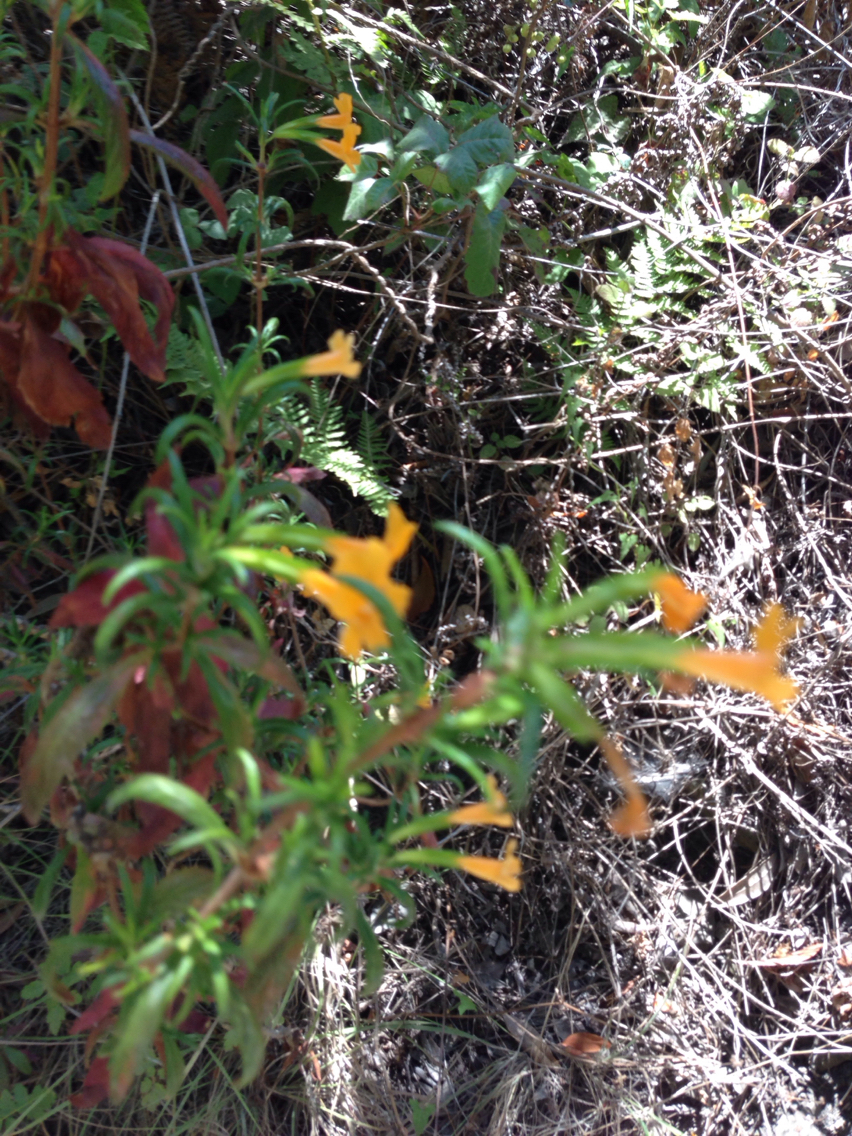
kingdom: Plantae
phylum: Tracheophyta
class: Magnoliopsida
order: Lamiales
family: Phrymaceae
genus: Diplacus
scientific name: Diplacus aurantiacus
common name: Bush monkey-flower
